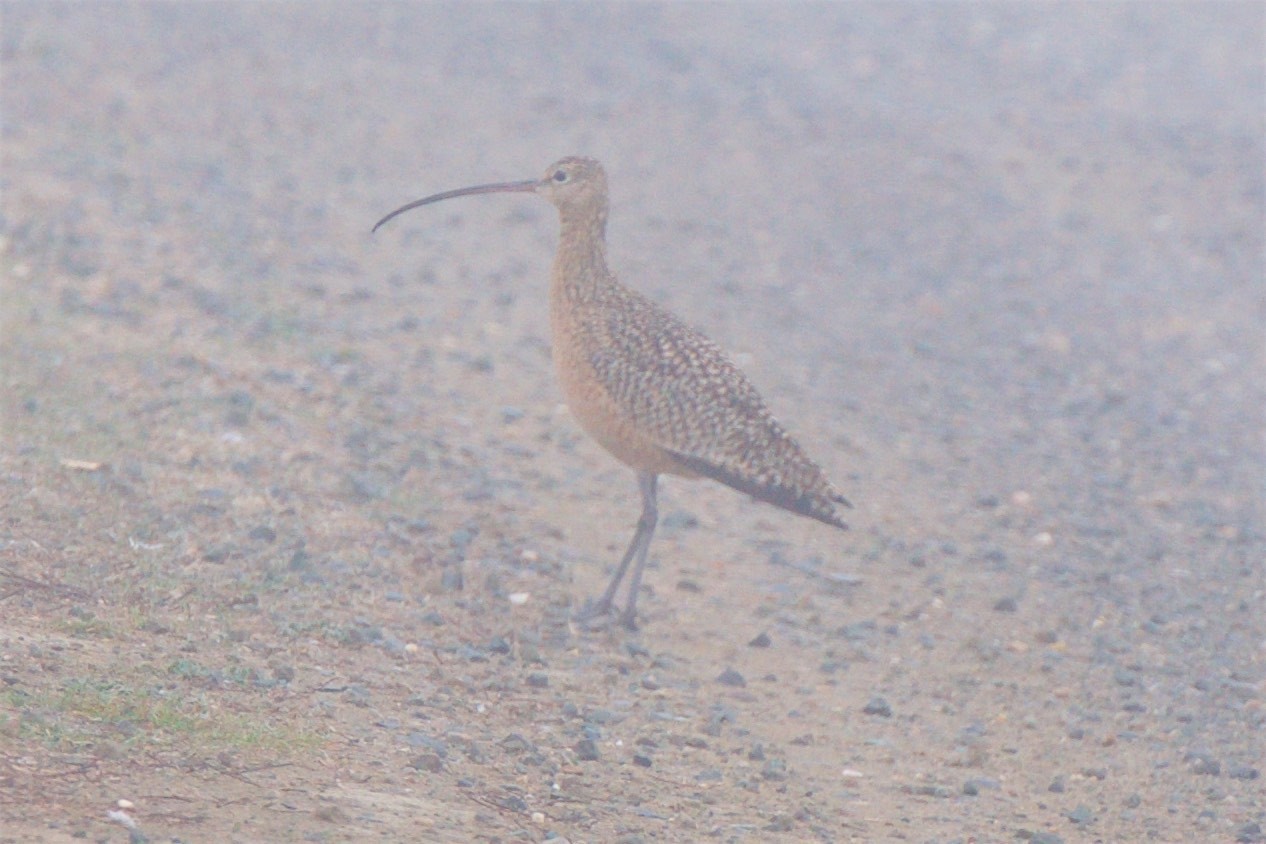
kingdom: Animalia
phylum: Chordata
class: Aves
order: Charadriiformes
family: Scolopacidae
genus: Numenius
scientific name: Numenius americanus
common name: Long-billed curlew
